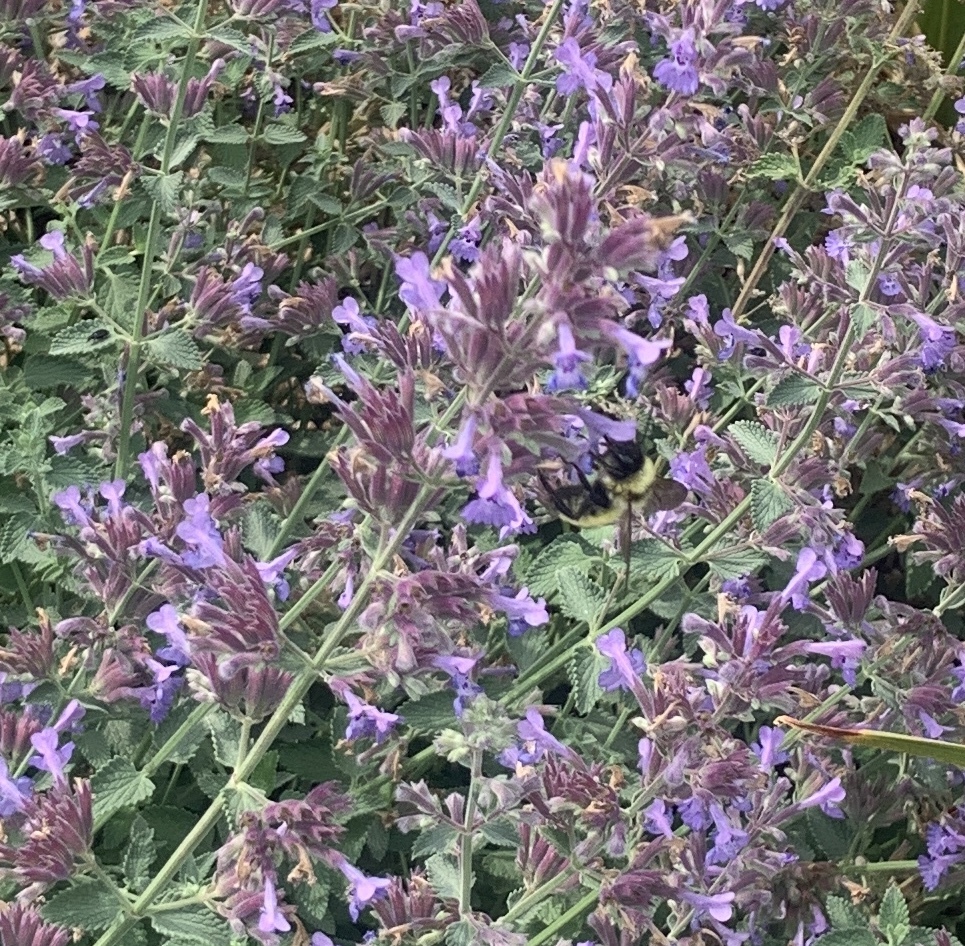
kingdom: Animalia
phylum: Arthropoda
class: Insecta
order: Hymenoptera
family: Apidae
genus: Bombus
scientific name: Bombus fervidus
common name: Yellow bumble bee
